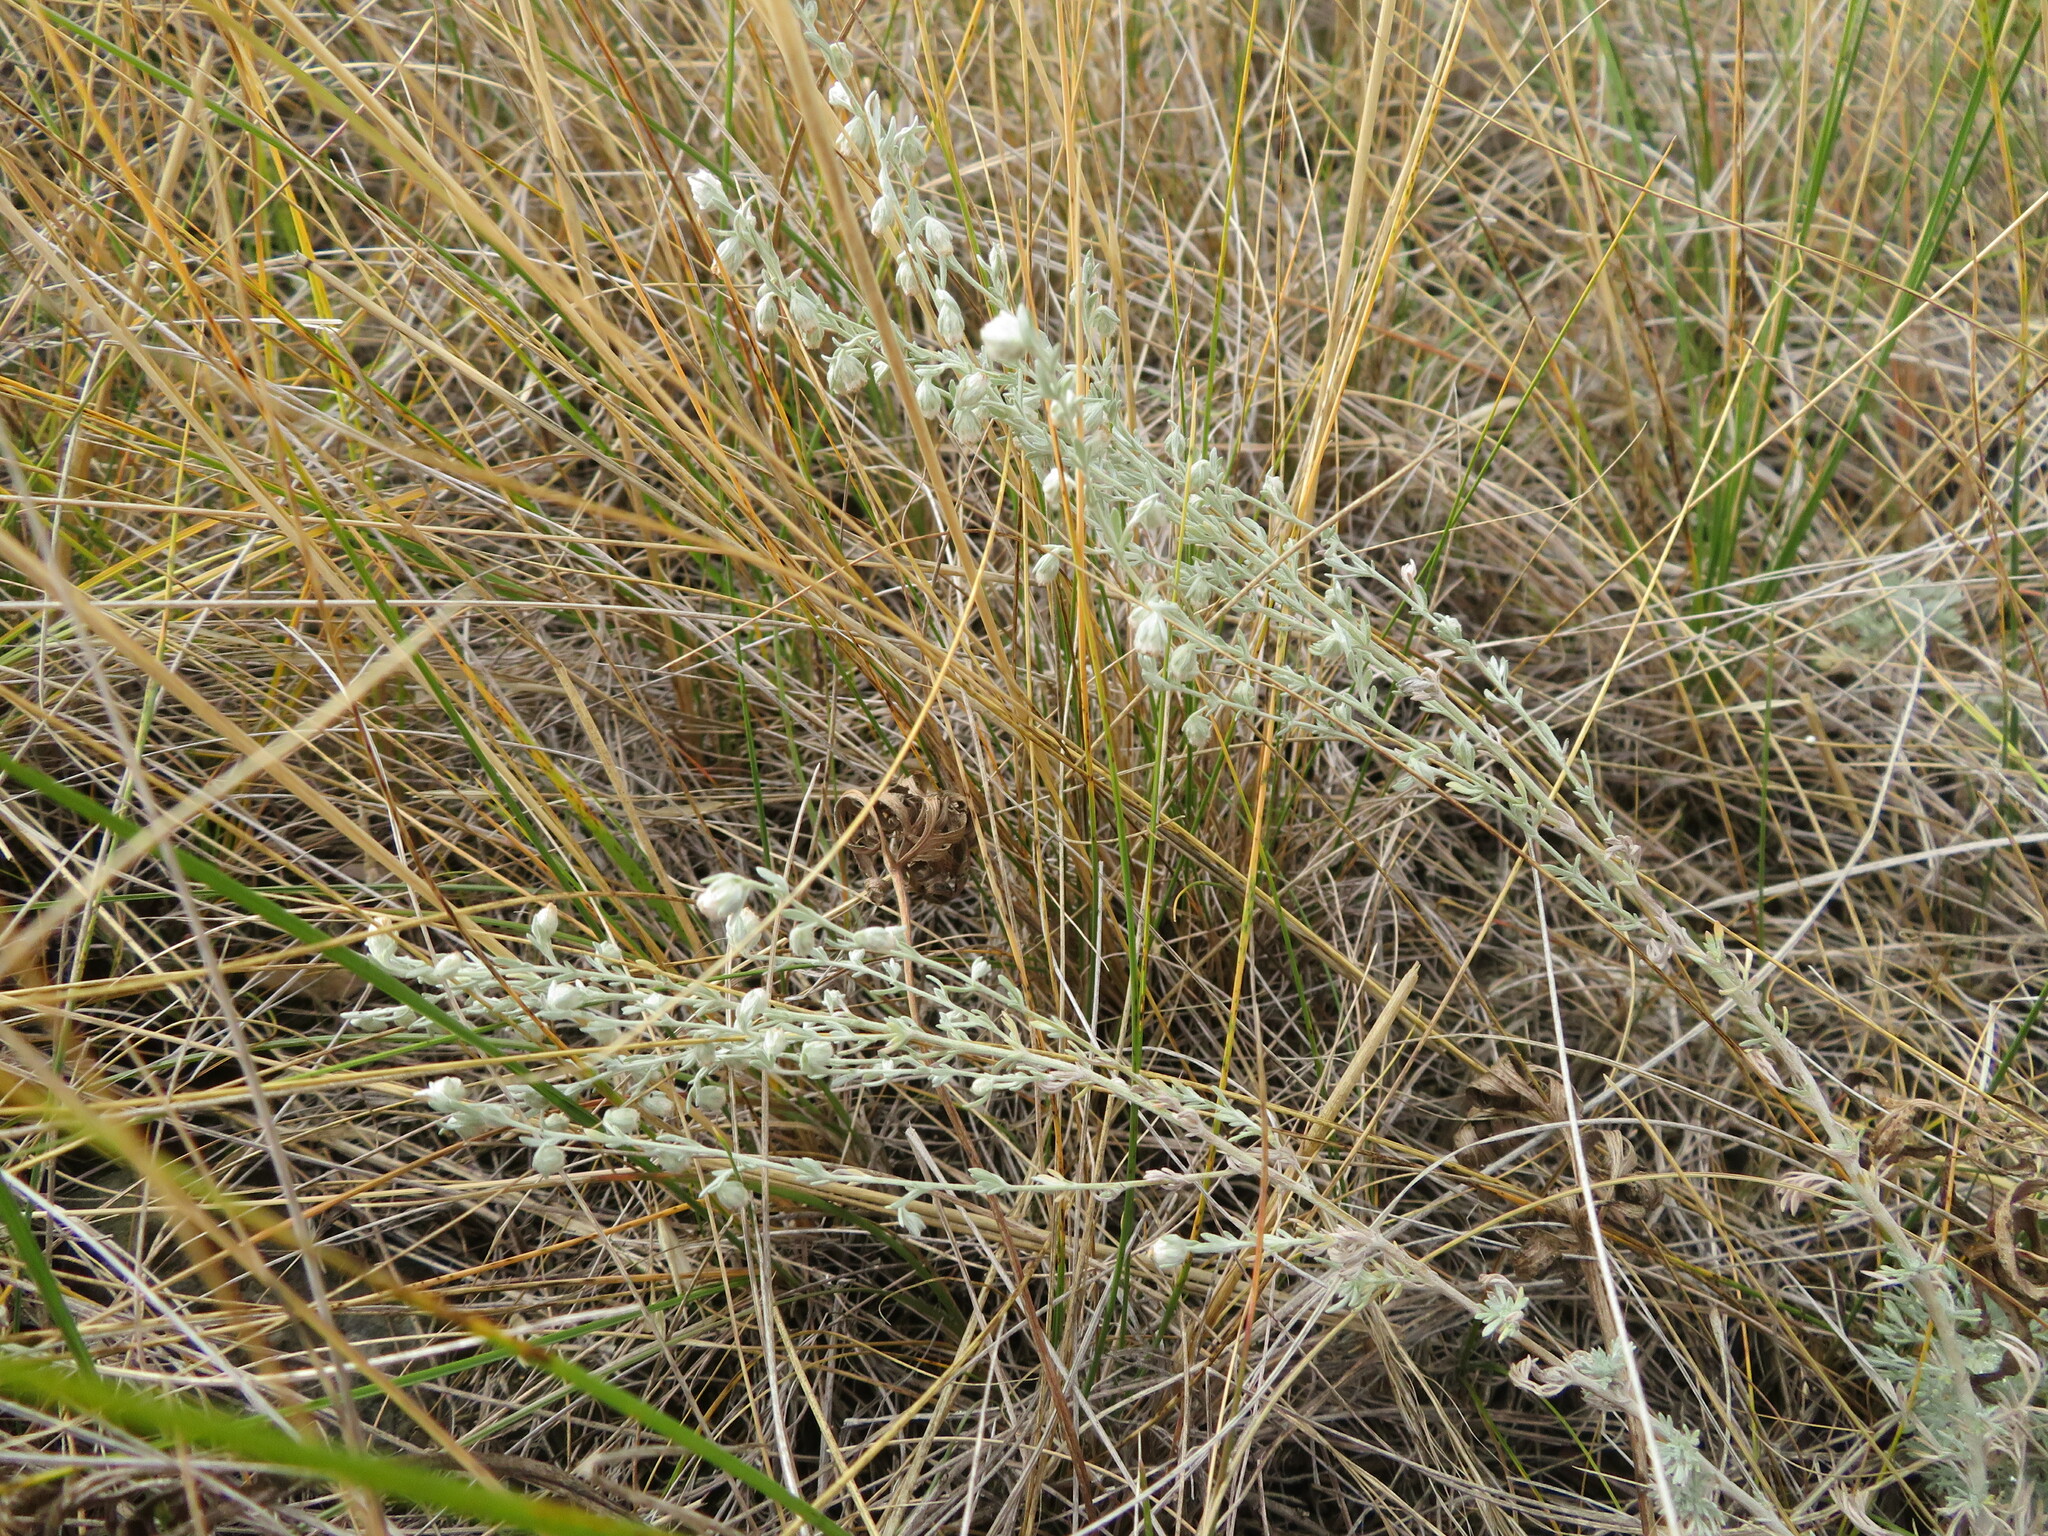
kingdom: Plantae
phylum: Tracheophyta
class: Magnoliopsida
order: Asterales
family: Asteraceae
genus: Artemisia
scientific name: Artemisia frigida
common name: Prairie sagewort
